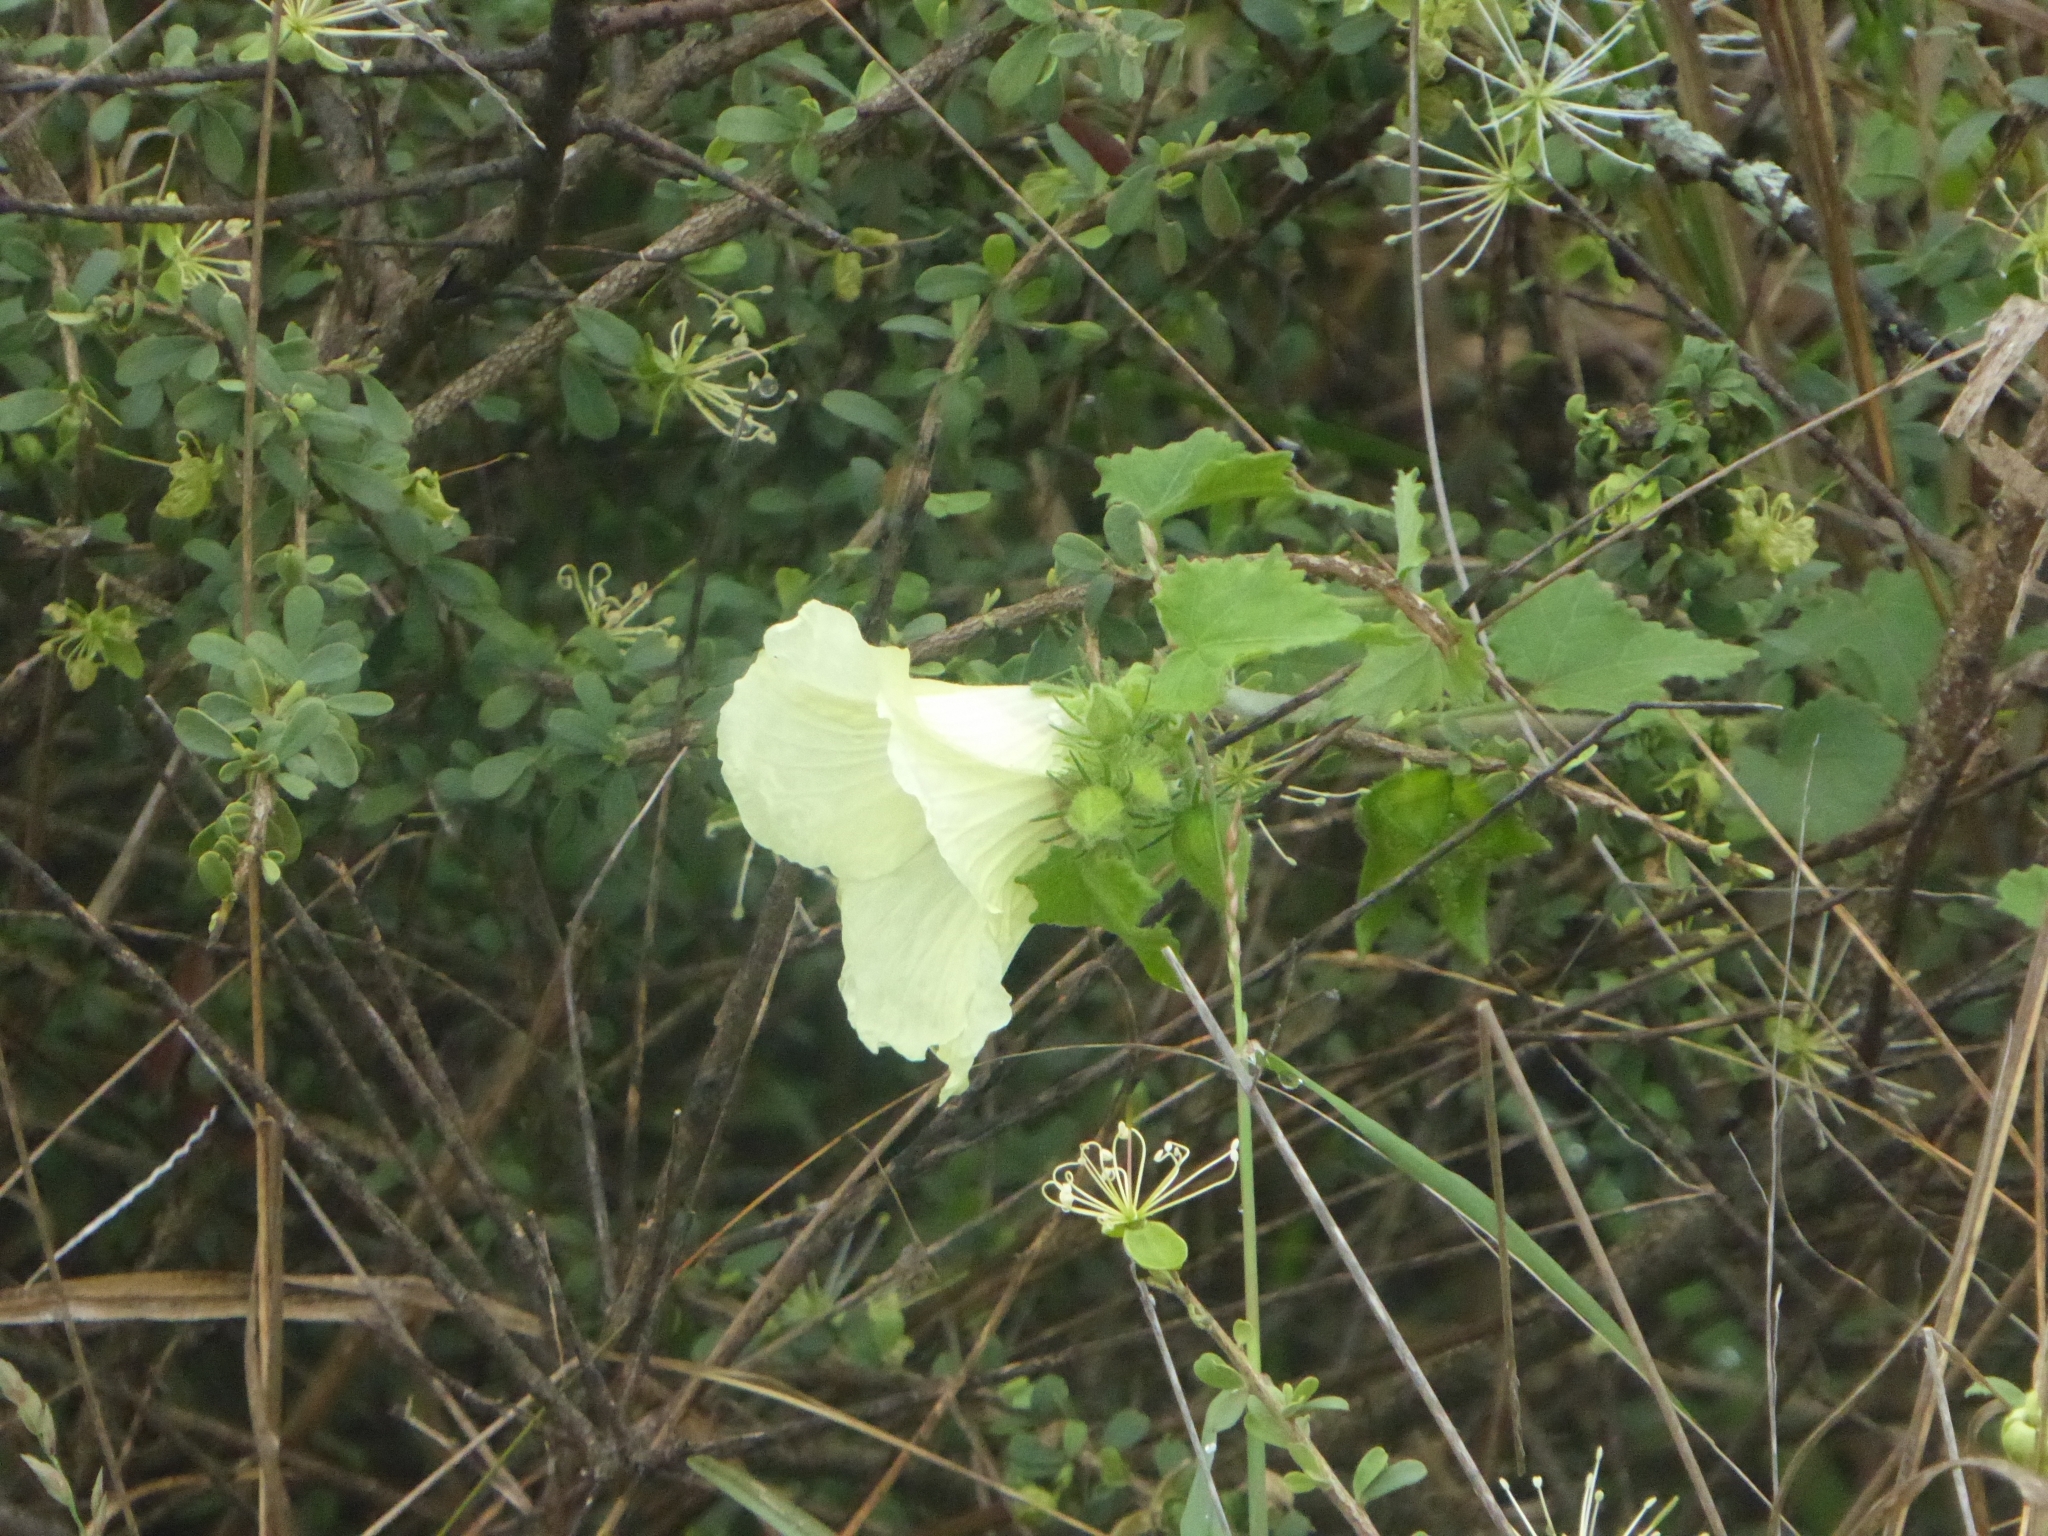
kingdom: Plantae
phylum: Tracheophyta
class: Magnoliopsida
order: Malvales
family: Malvaceae
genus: Hibiscus
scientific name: Hibiscus vitifolius
